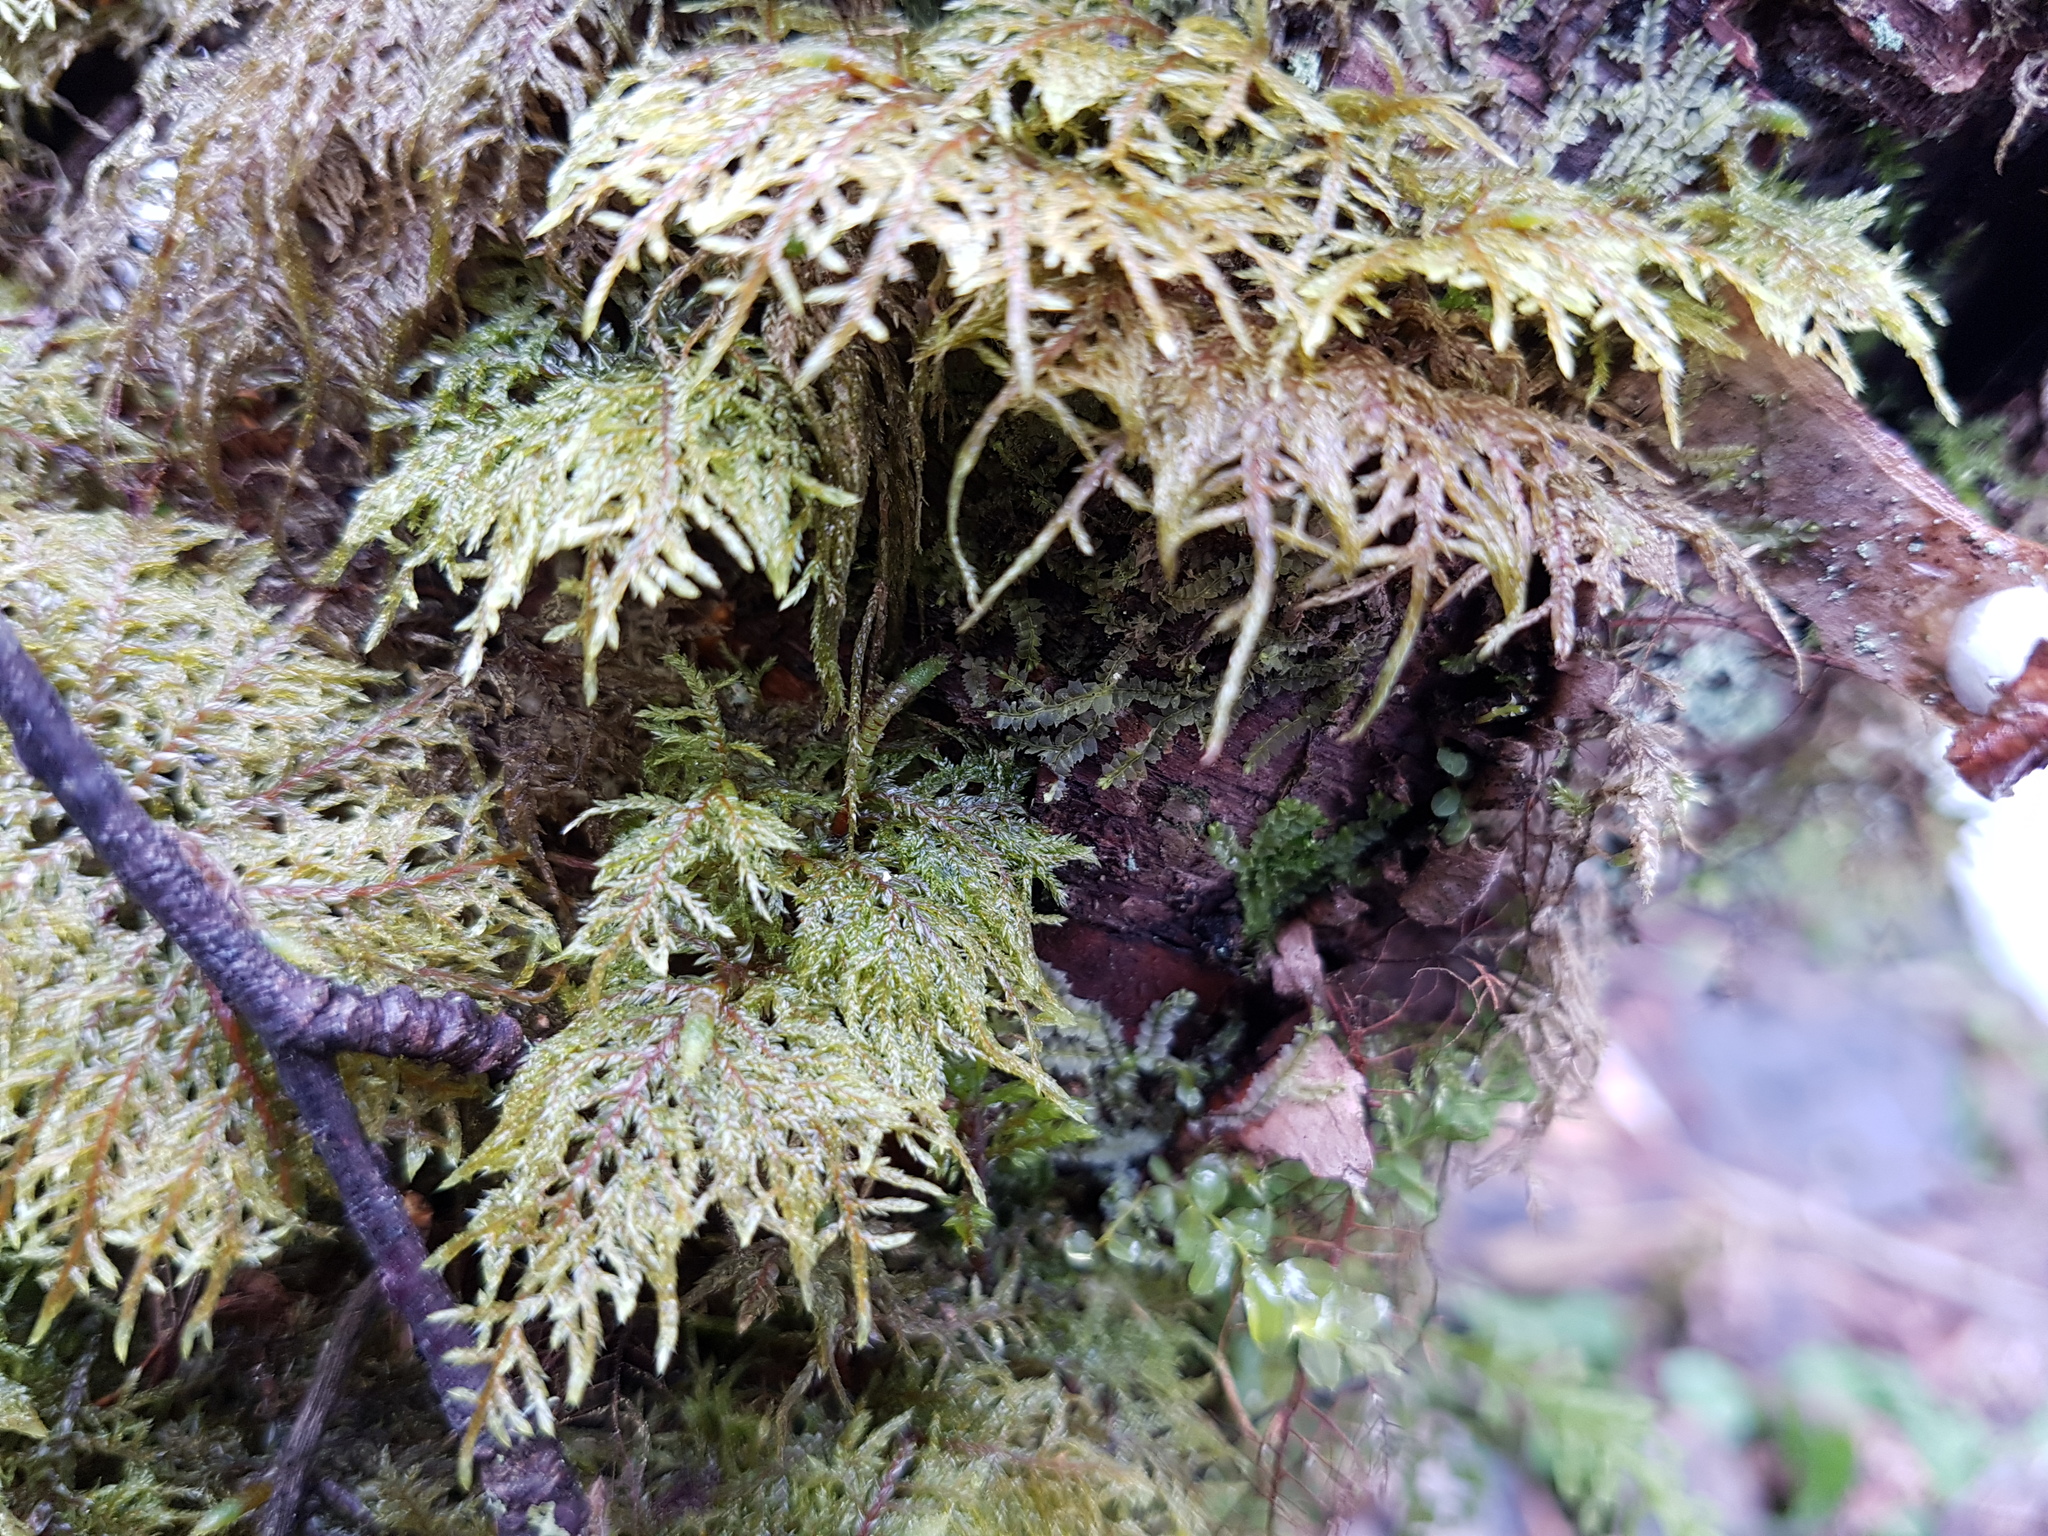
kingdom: Plantae
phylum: Bryophyta
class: Bryopsida
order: Hypnales
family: Hylocomiaceae
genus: Hylocomium
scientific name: Hylocomium splendens
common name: Stairstep moss
